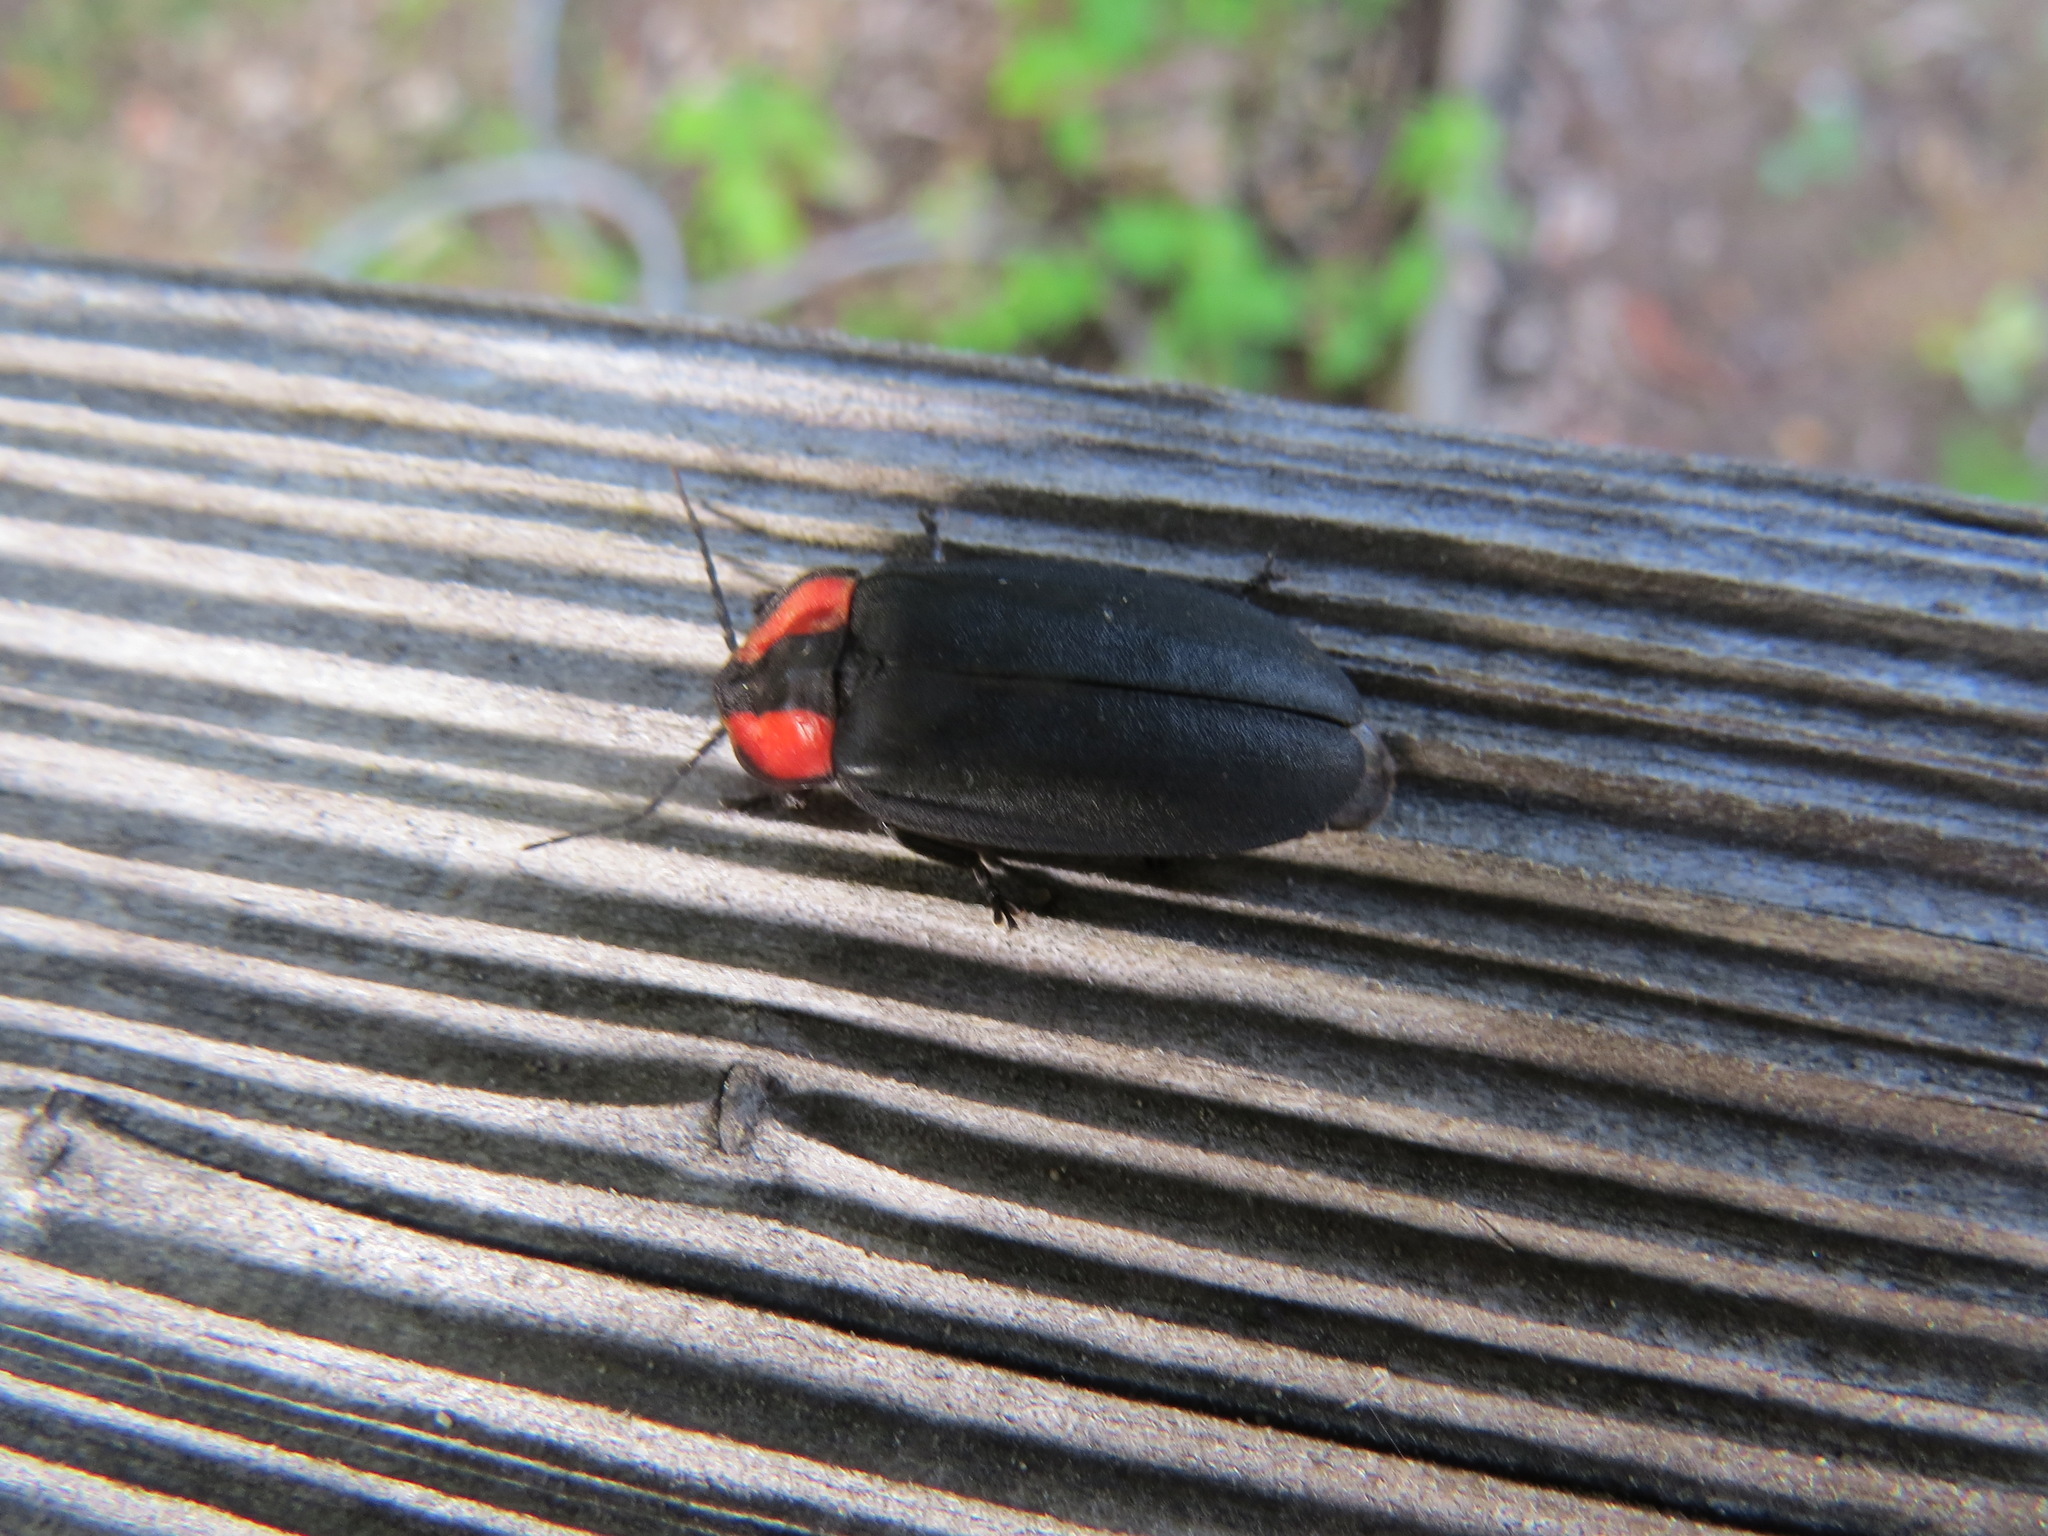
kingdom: Animalia
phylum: Arthropoda
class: Insecta
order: Coleoptera
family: Lampyridae
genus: Ellychnia
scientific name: Ellychnia megista
